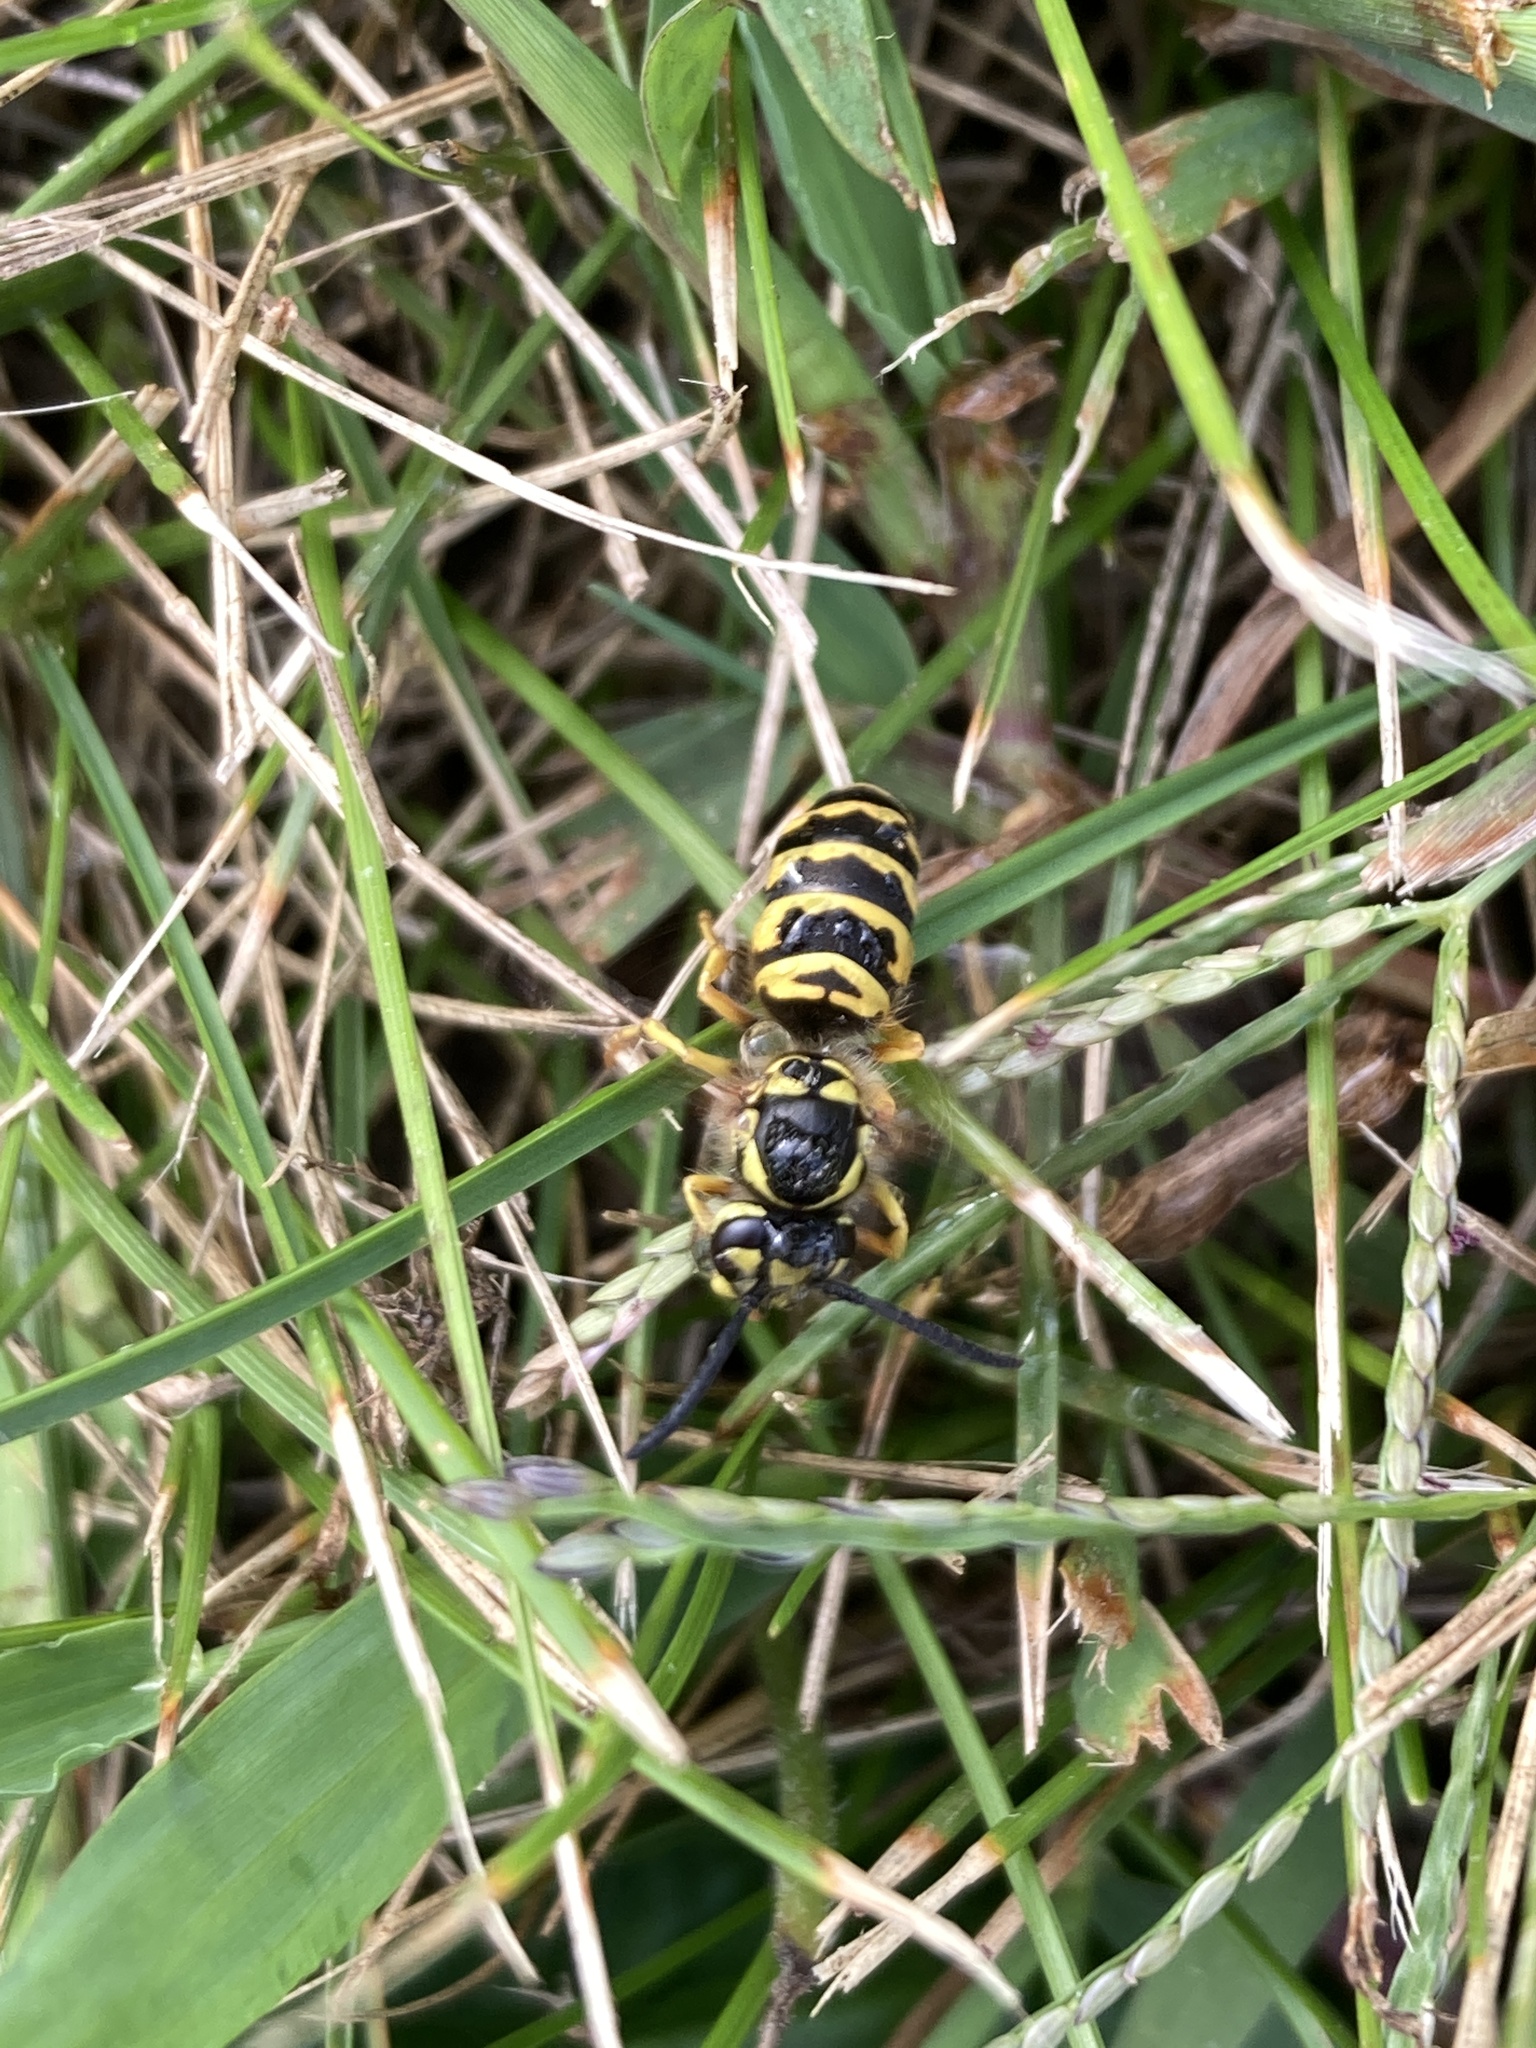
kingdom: Animalia
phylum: Arthropoda
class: Insecta
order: Hymenoptera
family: Vespidae
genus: Vespula
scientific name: Vespula maculifrons
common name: Eastern yellowjacket
